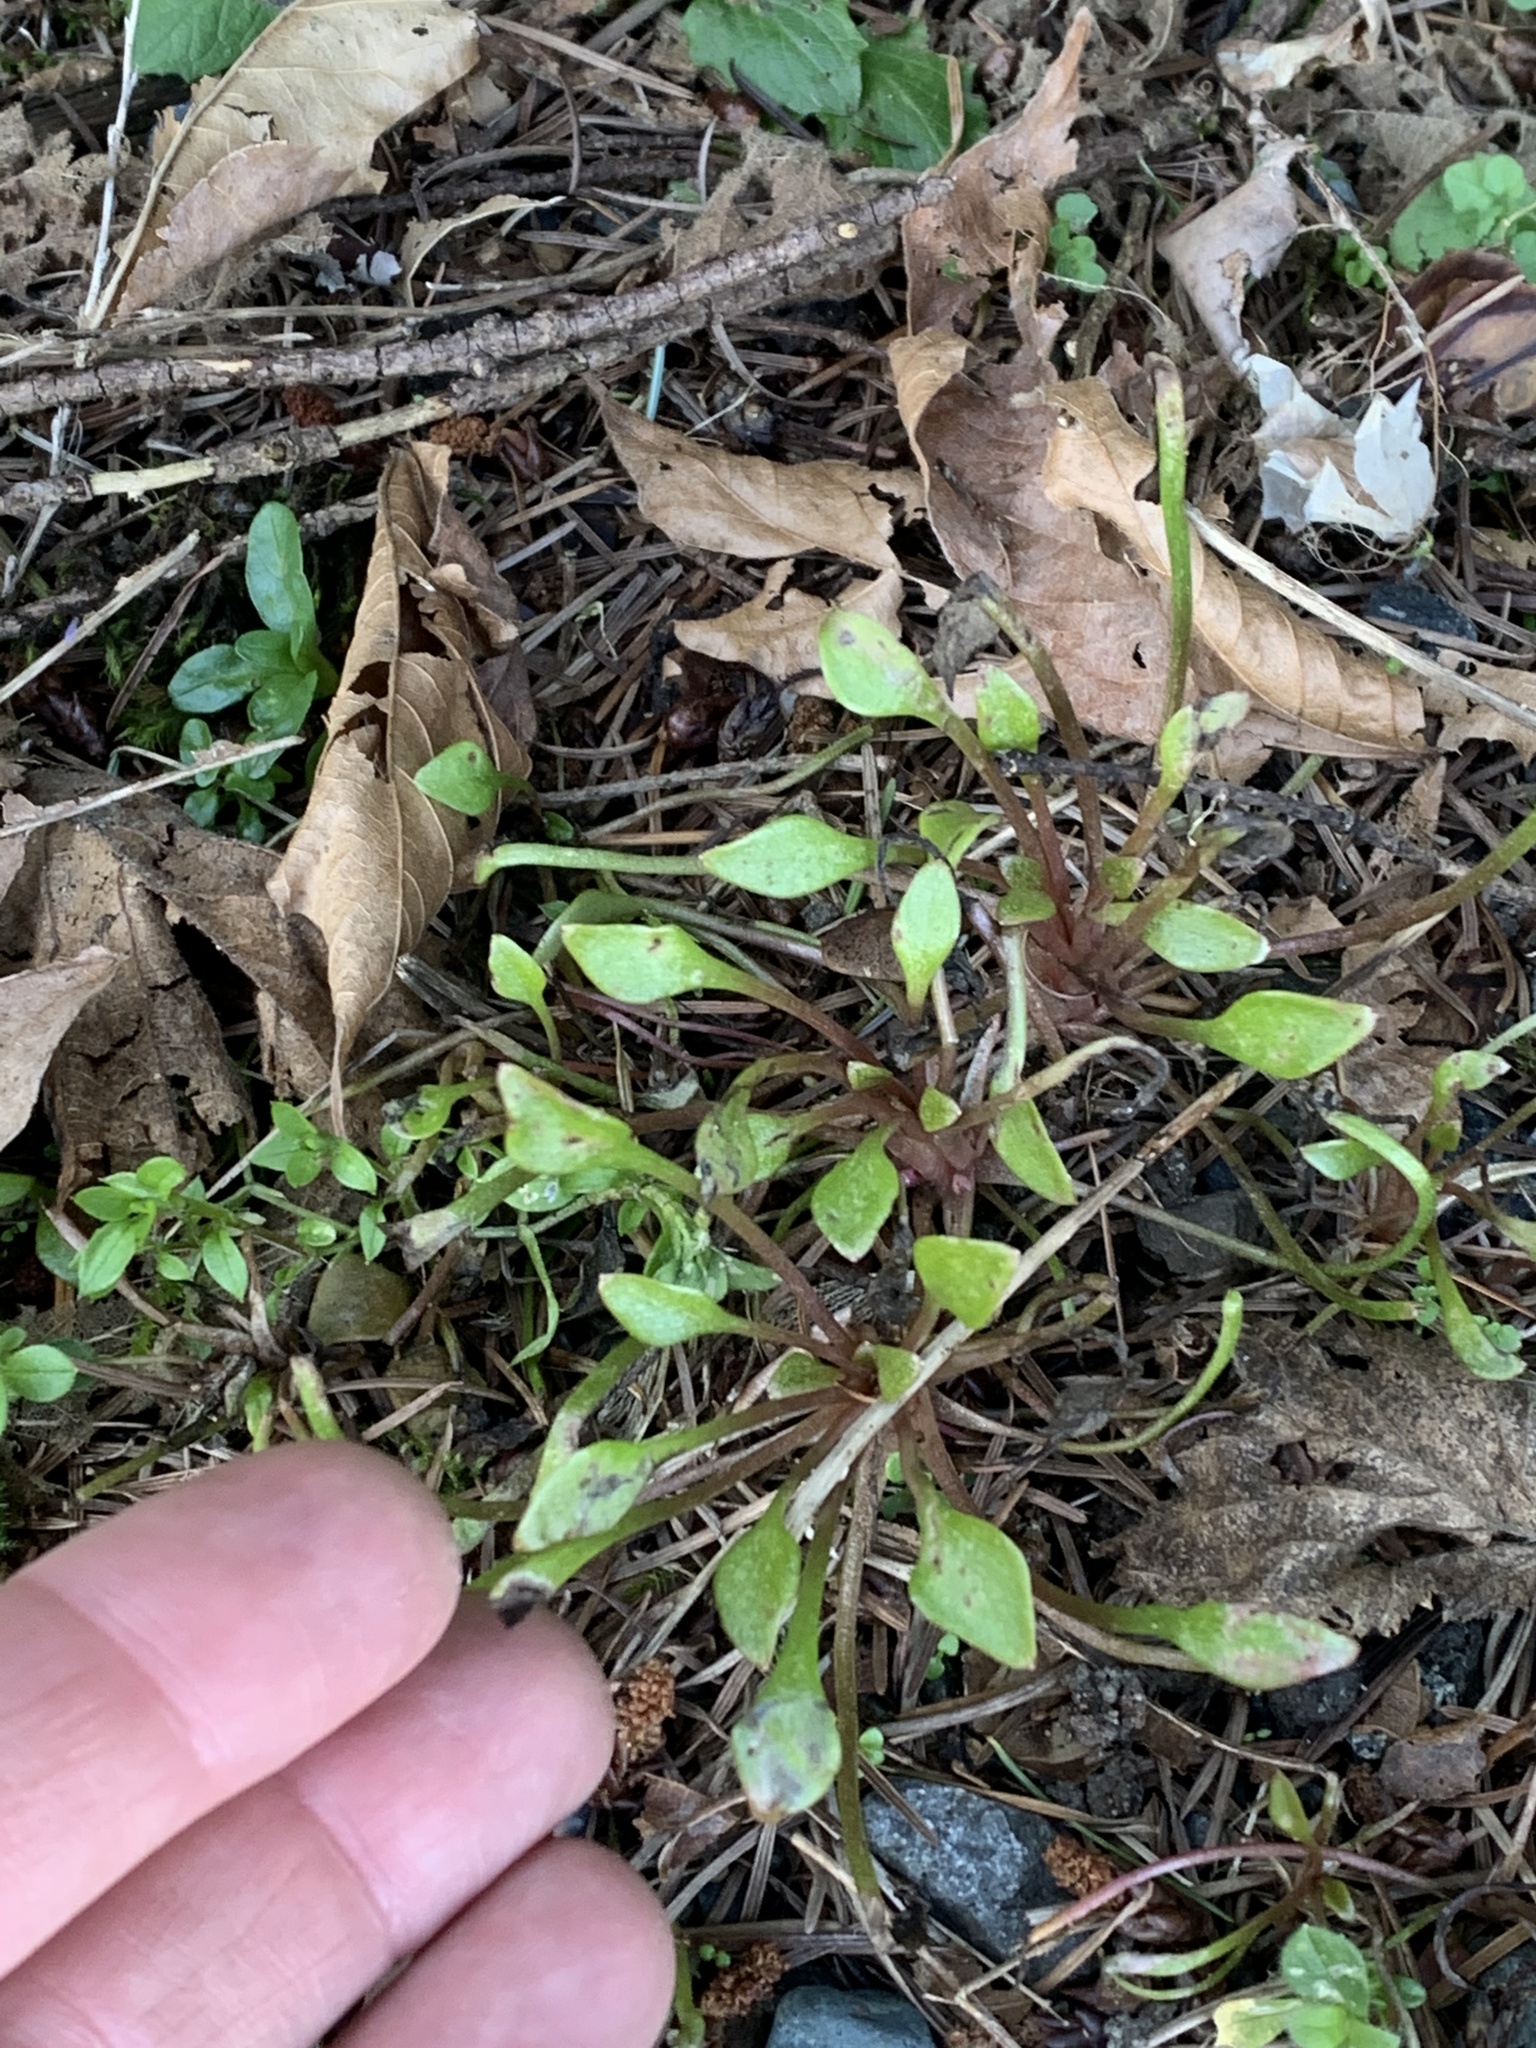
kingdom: Plantae
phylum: Tracheophyta
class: Magnoliopsida
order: Caryophyllales
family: Montiaceae
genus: Claytonia
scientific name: Claytonia sibirica
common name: Pink purslane
